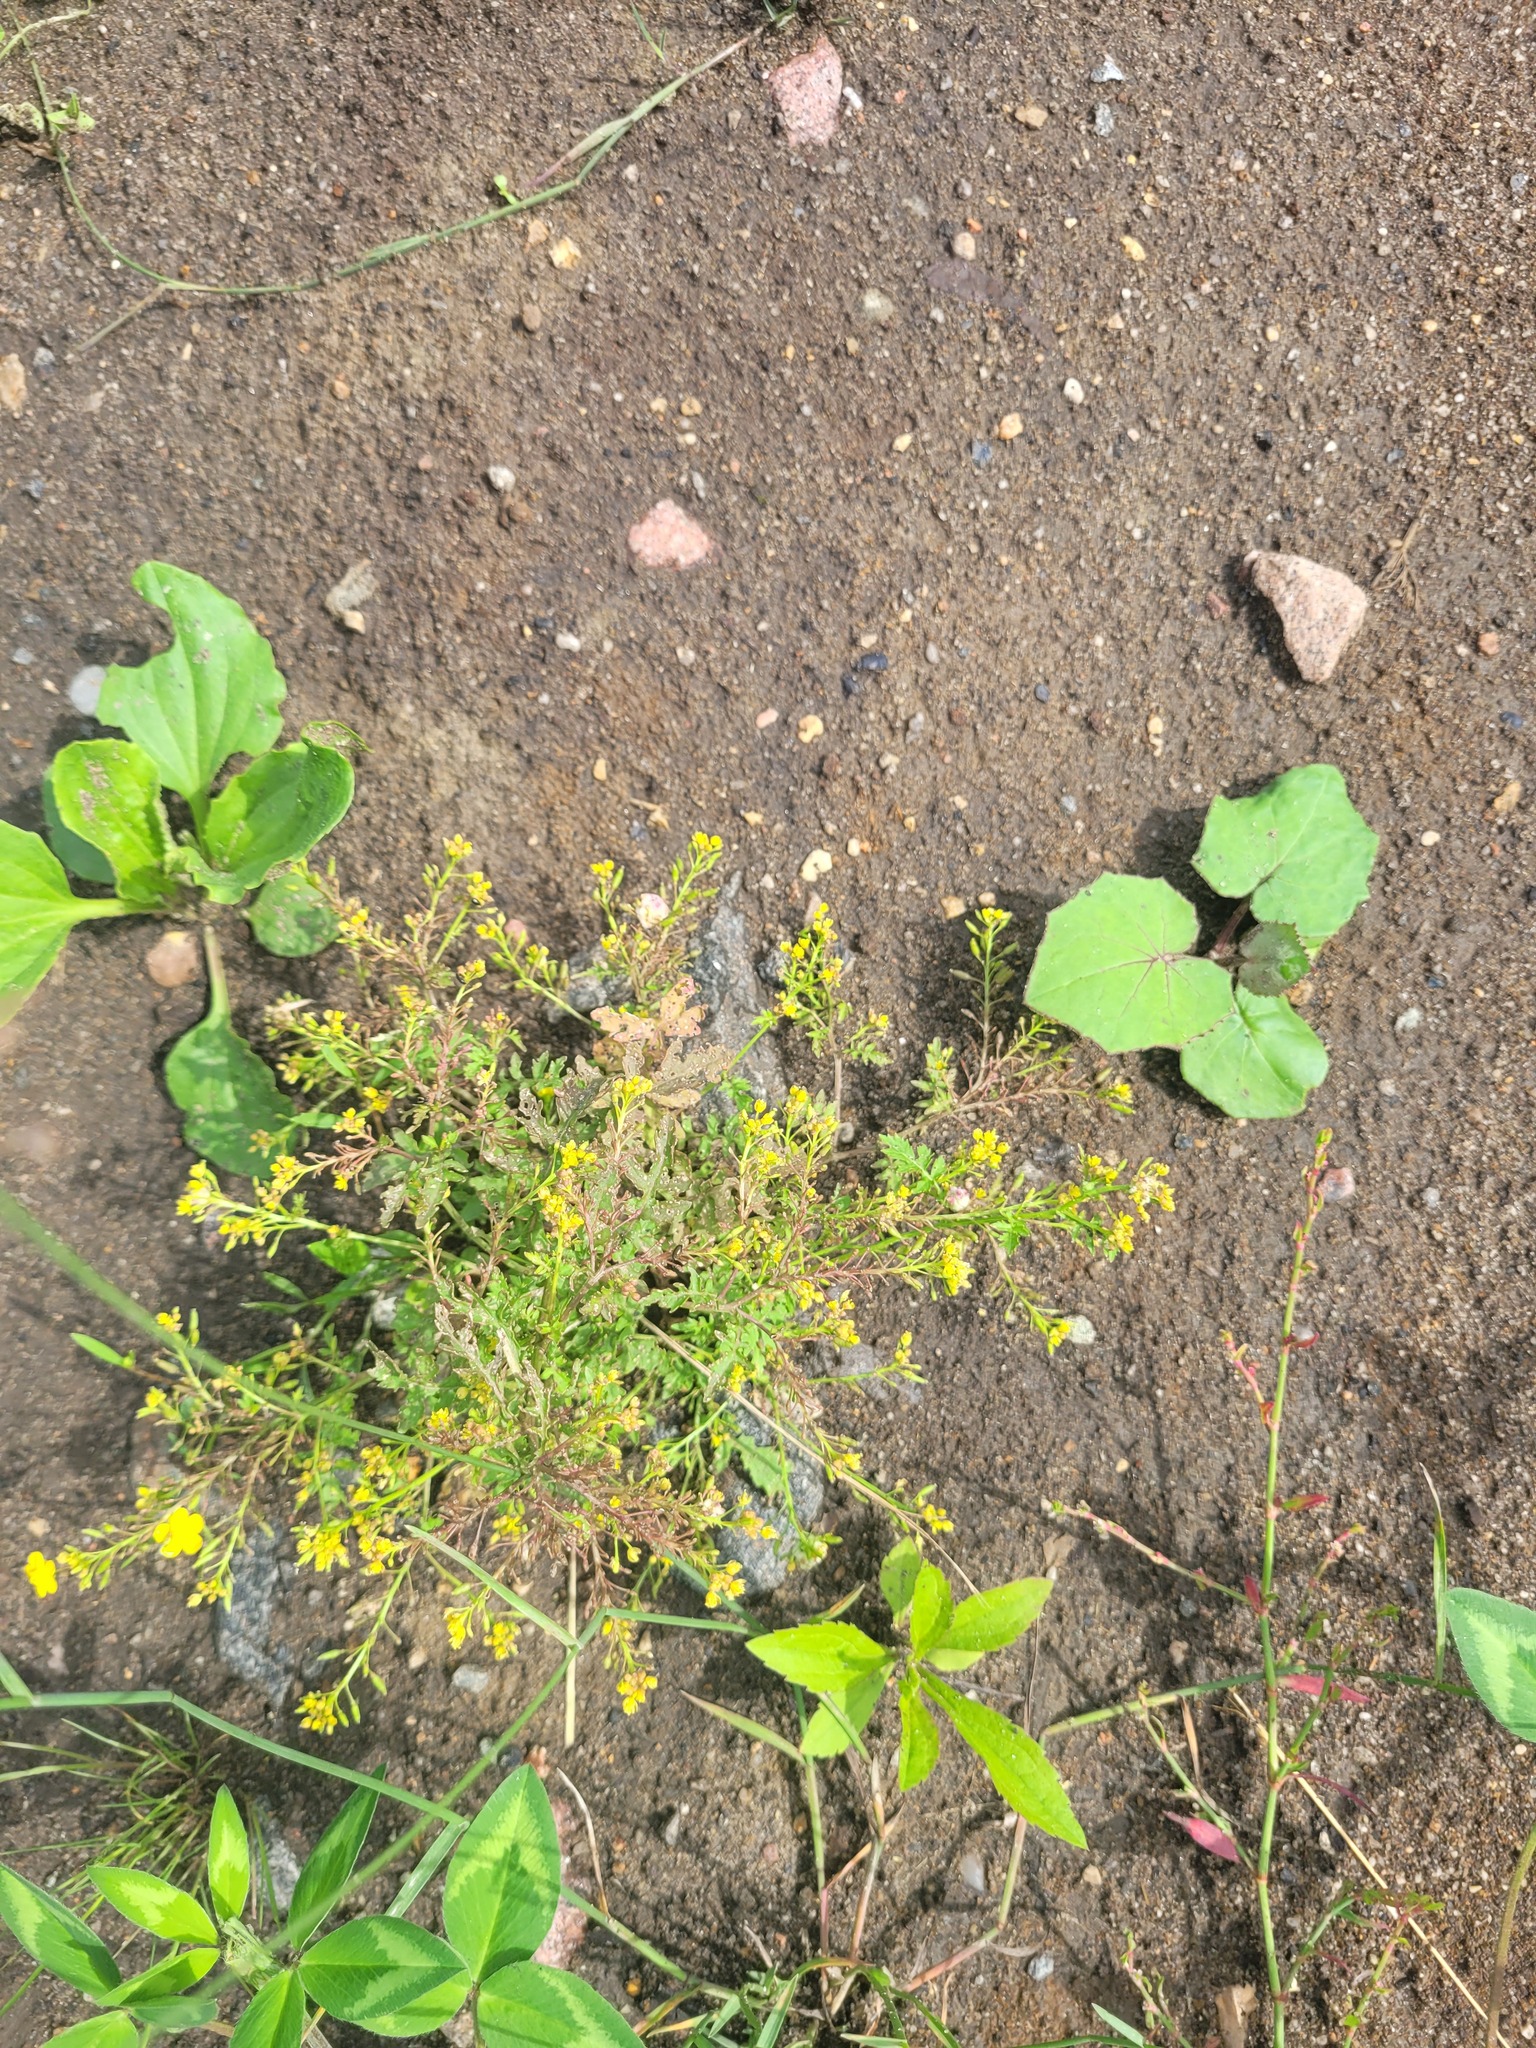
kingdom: Plantae
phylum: Tracheophyta
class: Magnoliopsida
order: Brassicales
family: Brassicaceae
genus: Rorippa
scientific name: Rorippa palustris
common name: Marsh yellow-cress
